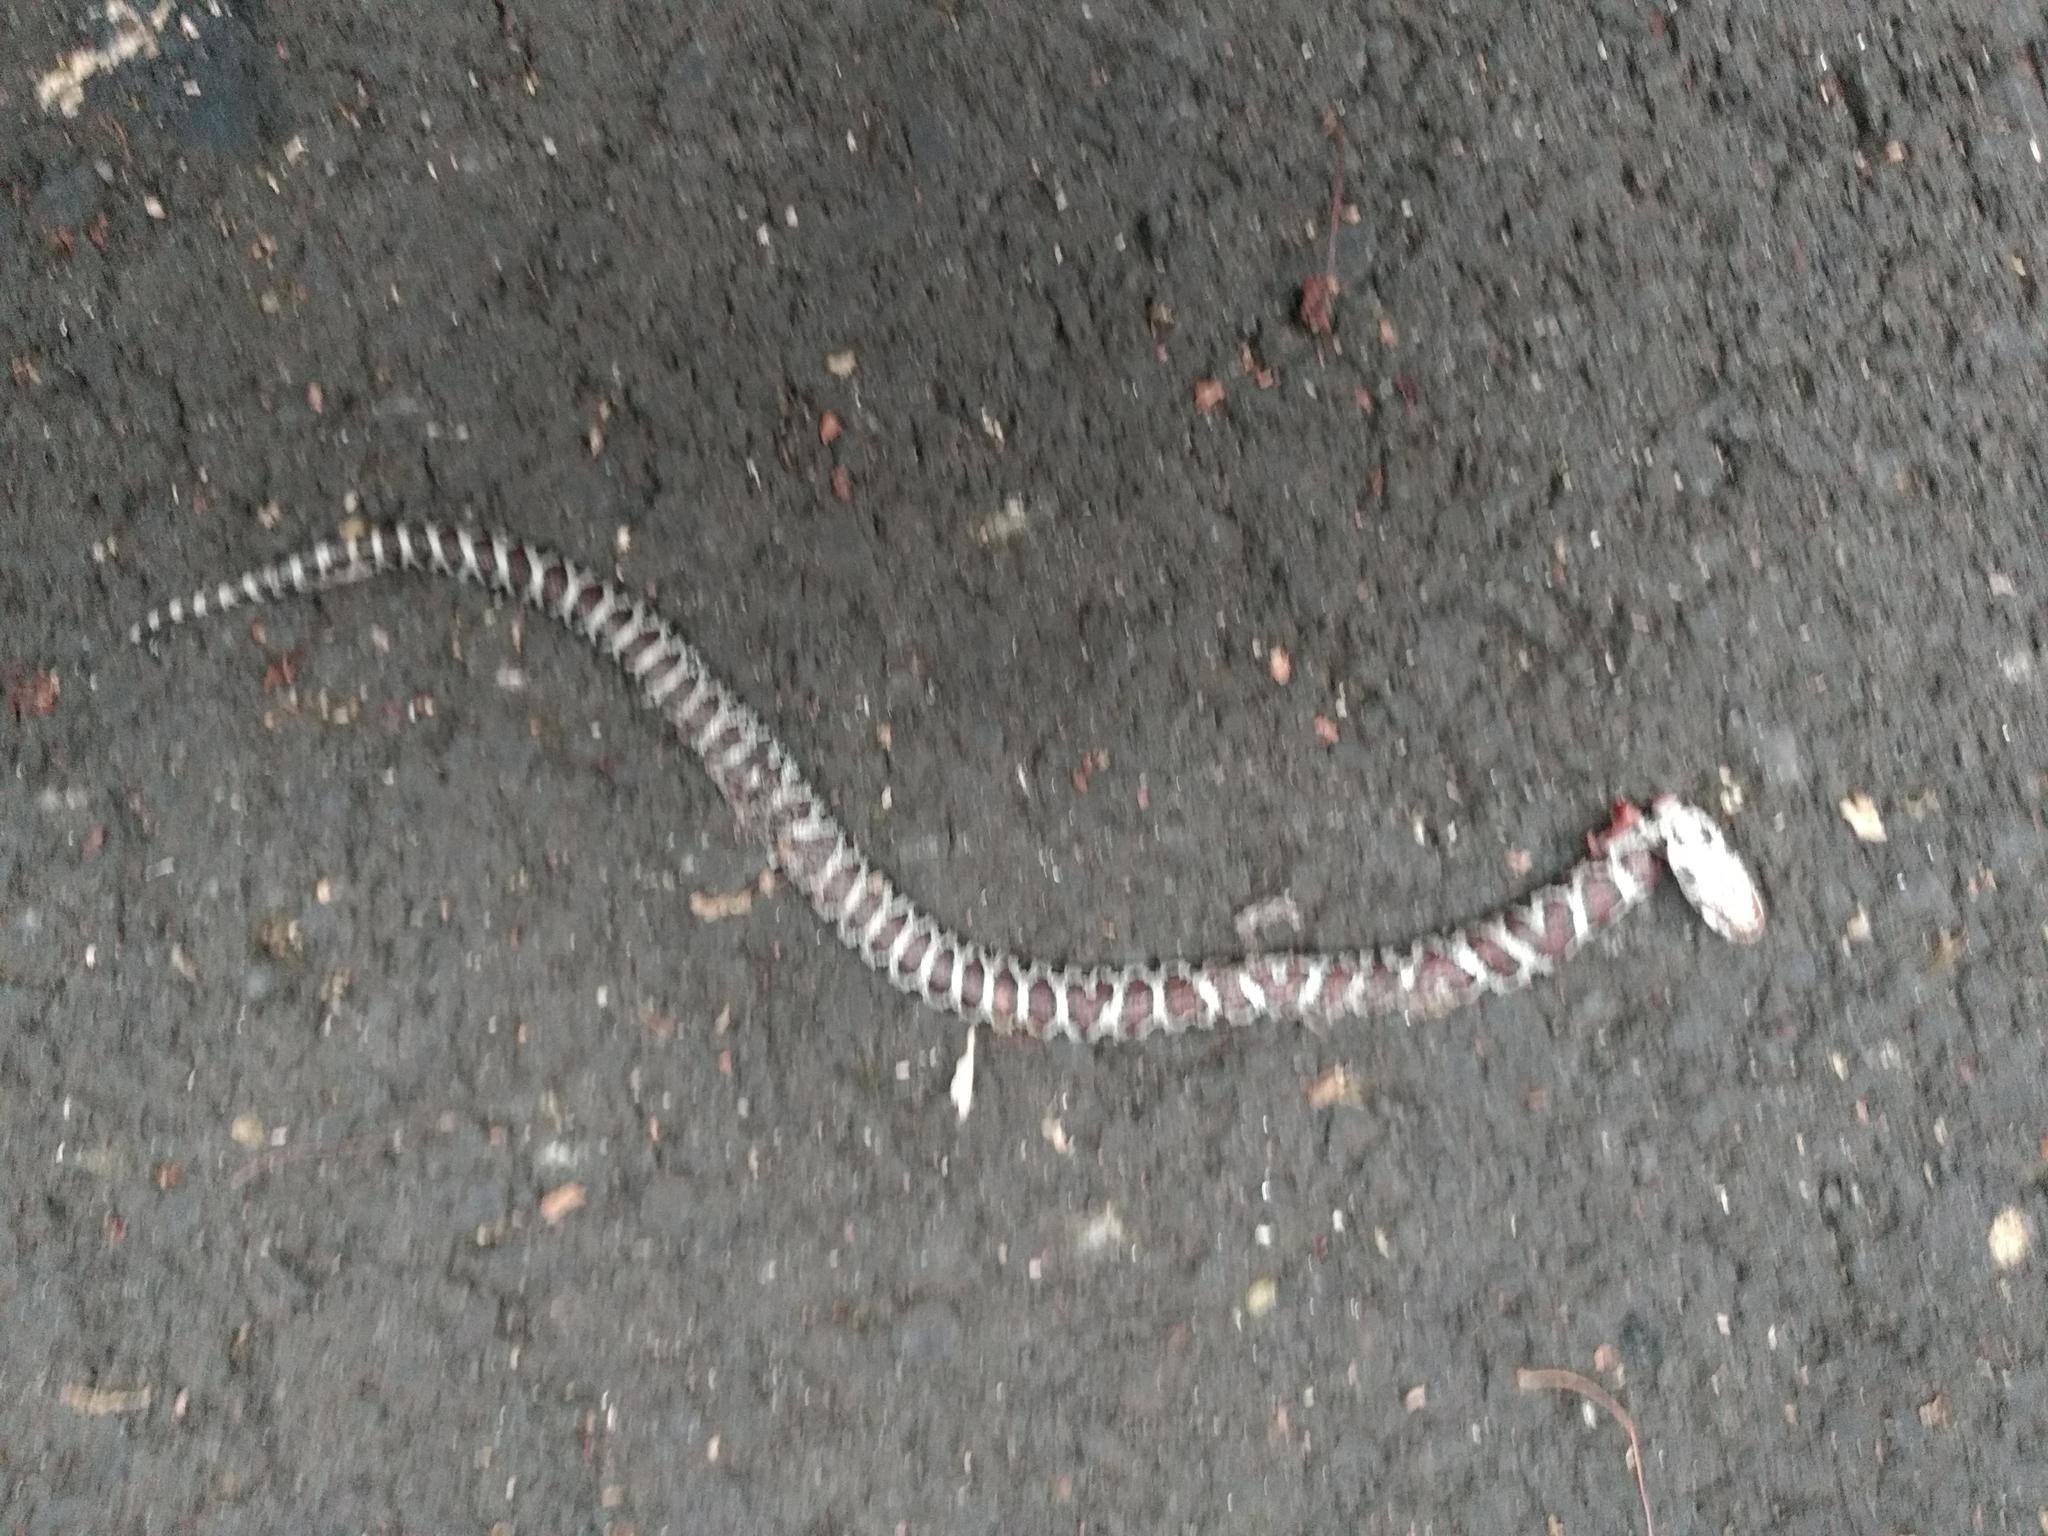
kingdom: Animalia
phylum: Chordata
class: Squamata
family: Colubridae
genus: Lampropeltis
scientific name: Lampropeltis triangulum
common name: Eastern milksnake
